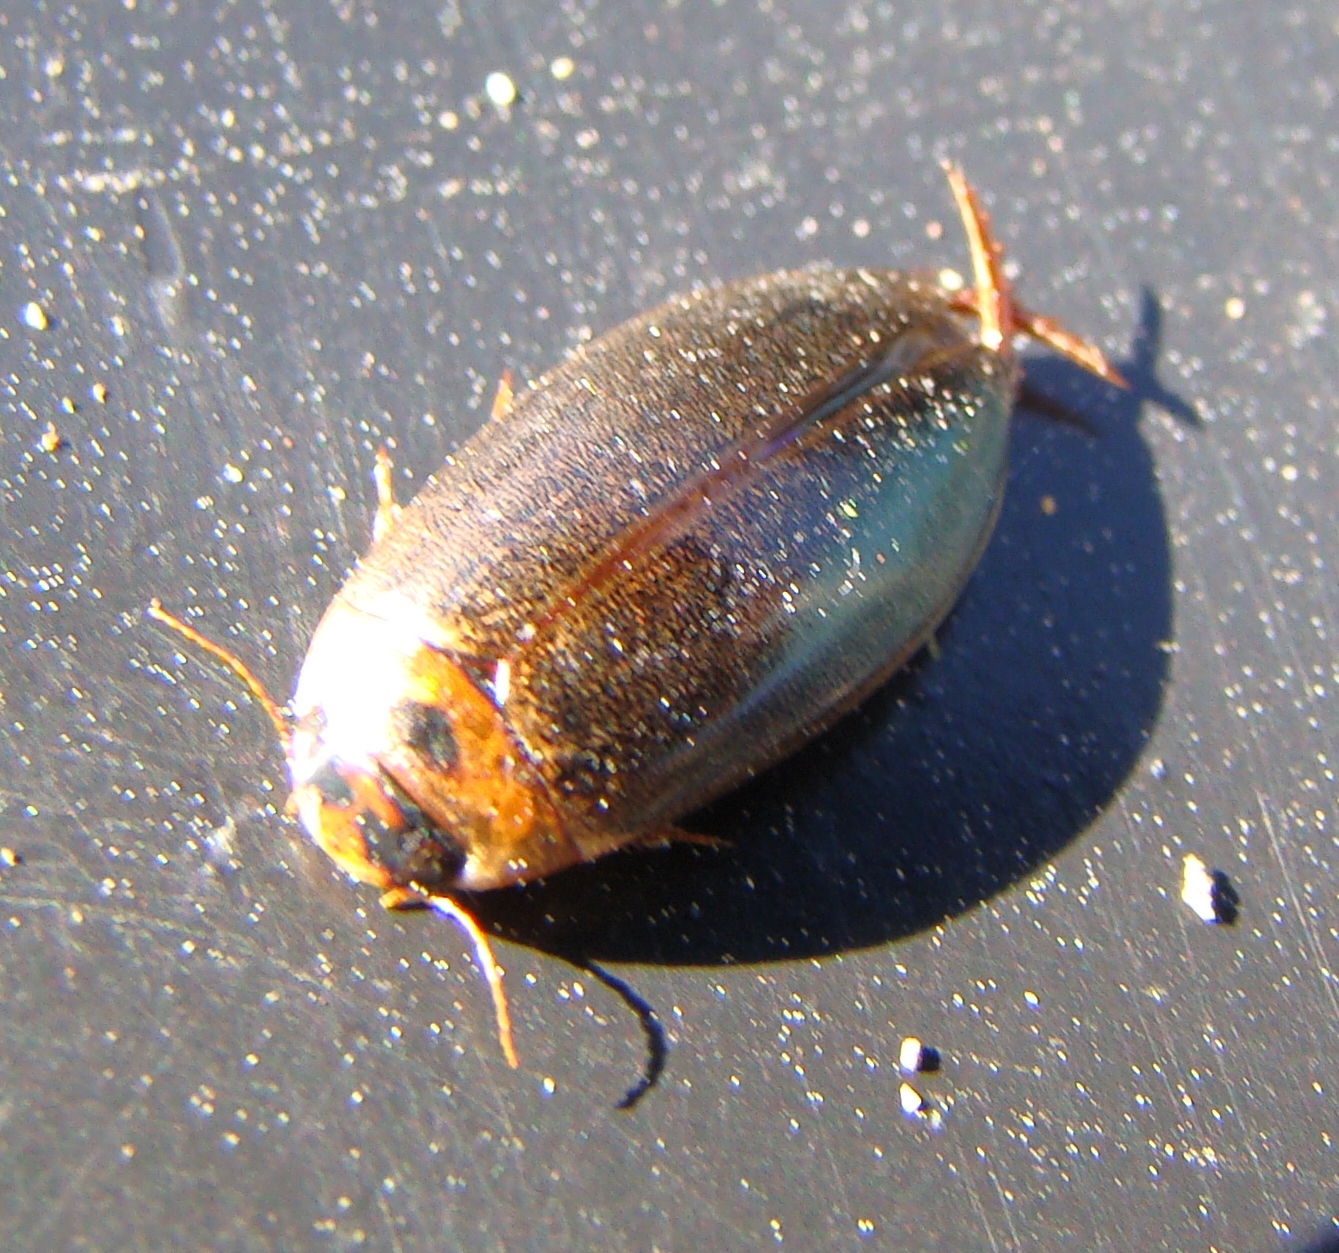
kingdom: Animalia
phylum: Arthropoda
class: Insecta
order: Coleoptera
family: Dytiscidae
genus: Rhantus
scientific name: Rhantus suturalis
